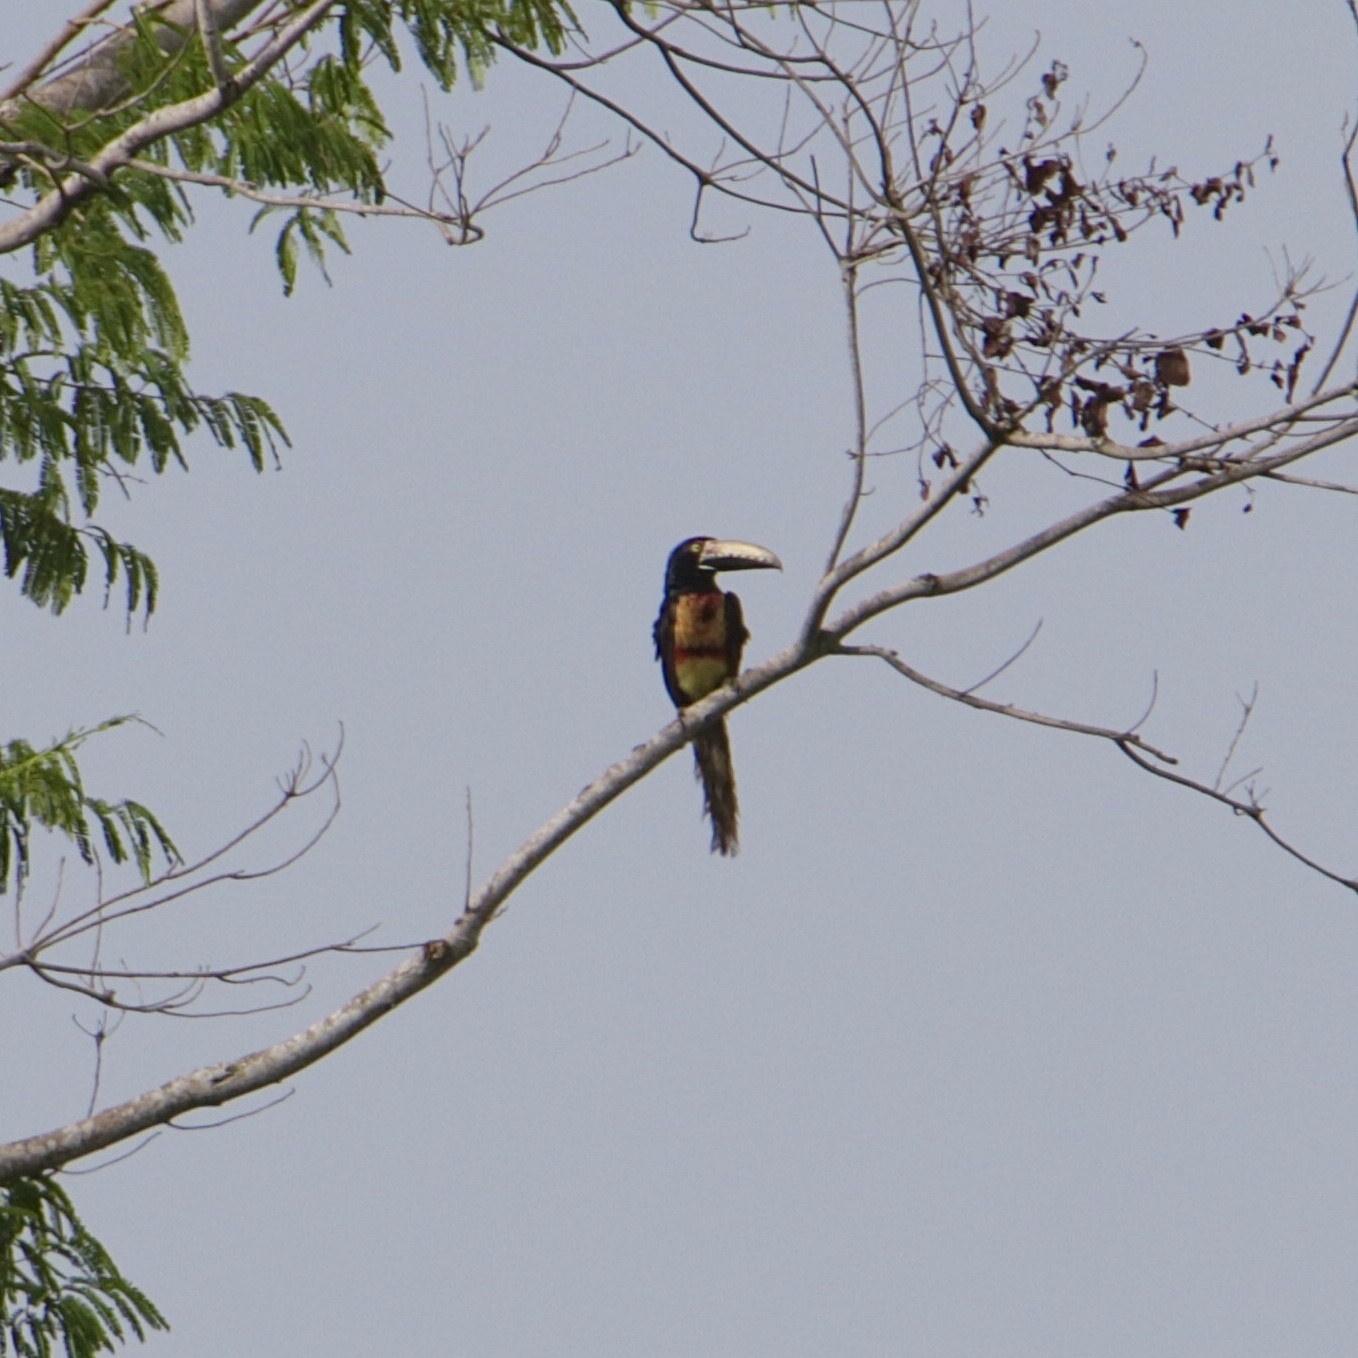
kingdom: Animalia
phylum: Chordata
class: Aves
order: Piciformes
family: Ramphastidae
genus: Pteroglossus
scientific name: Pteroglossus torquatus
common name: Collared aracari
